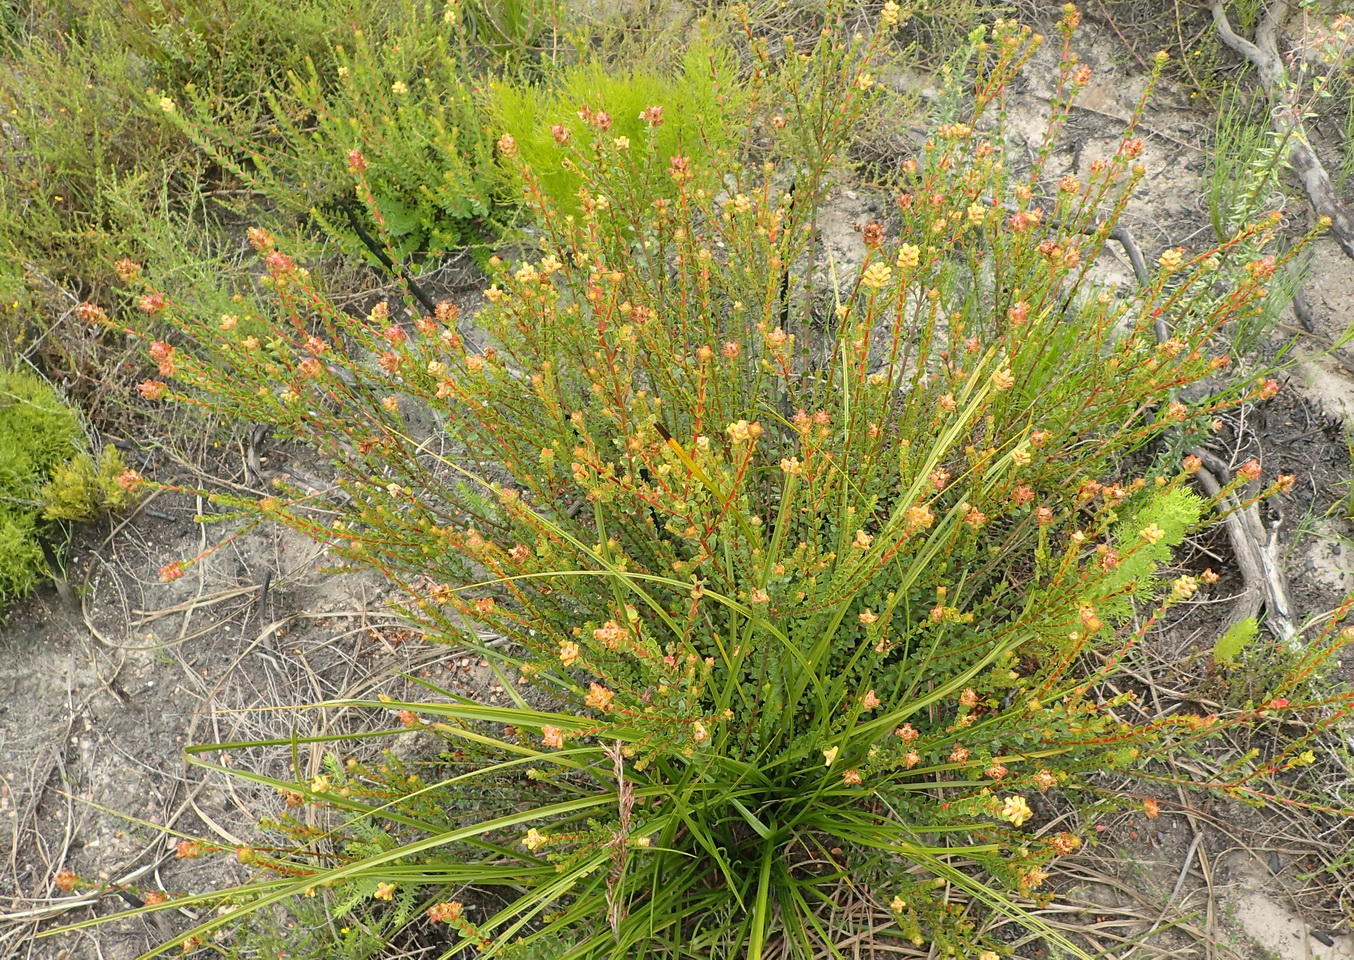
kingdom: Plantae
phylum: Tracheophyta
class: Magnoliopsida
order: Myrtales
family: Penaeaceae
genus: Penaea
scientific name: Penaea cneorum
